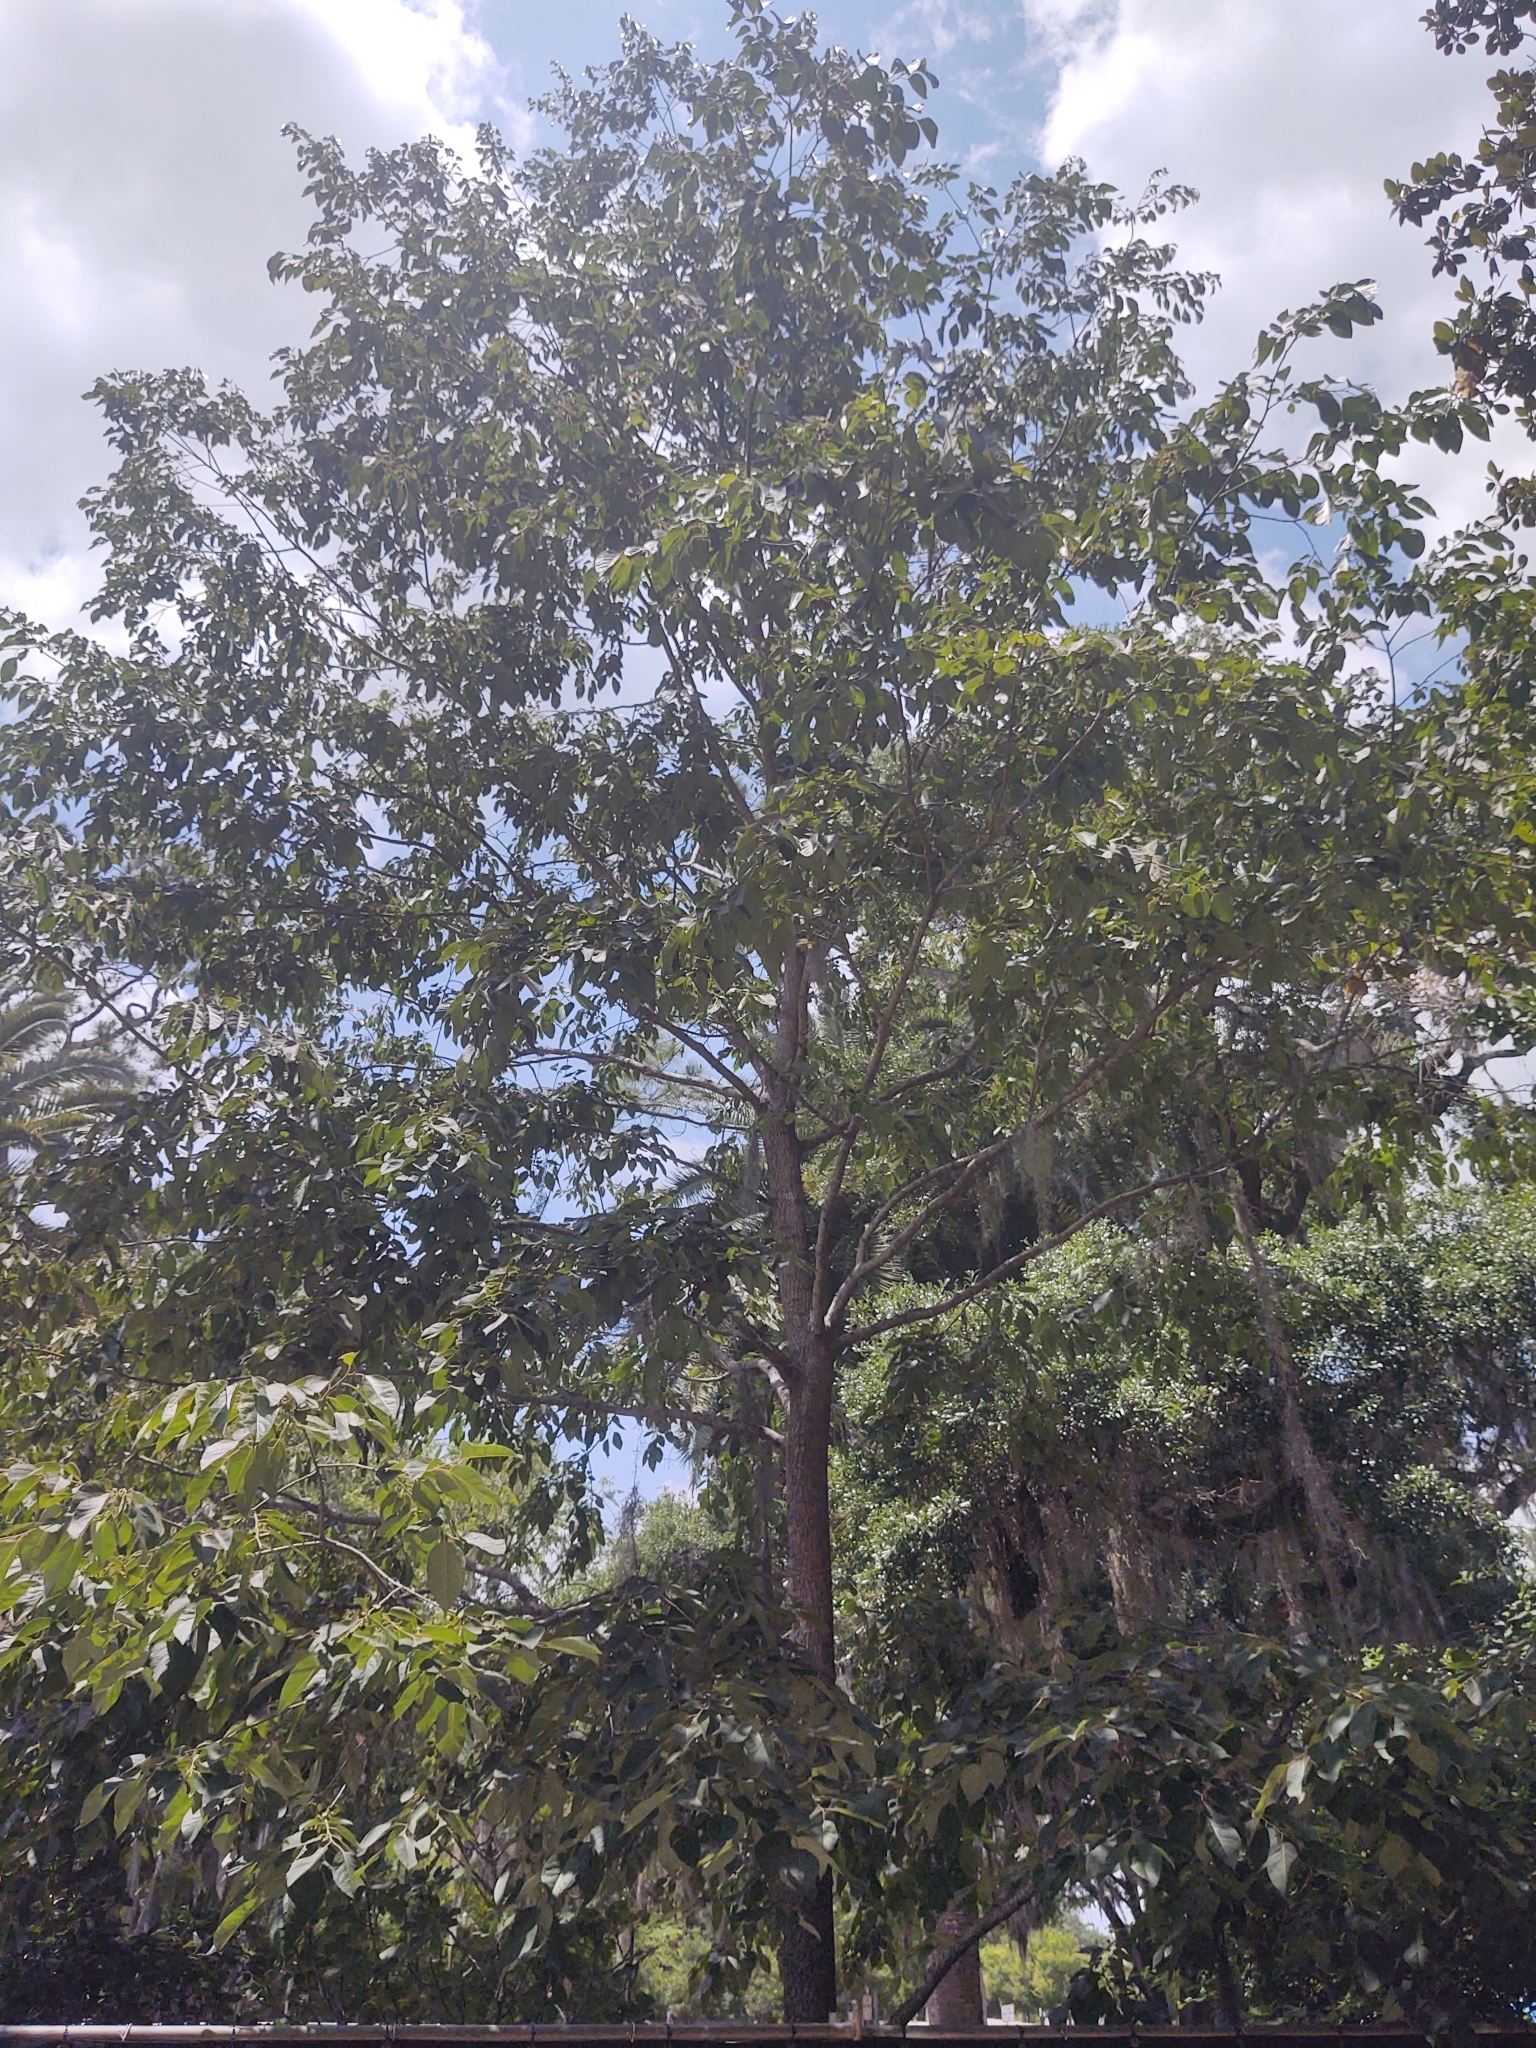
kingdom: Plantae
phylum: Tracheophyta
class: Magnoliopsida
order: Ericales
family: Ebenaceae
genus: Diospyros
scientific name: Diospyros virginiana
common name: Persimmon
